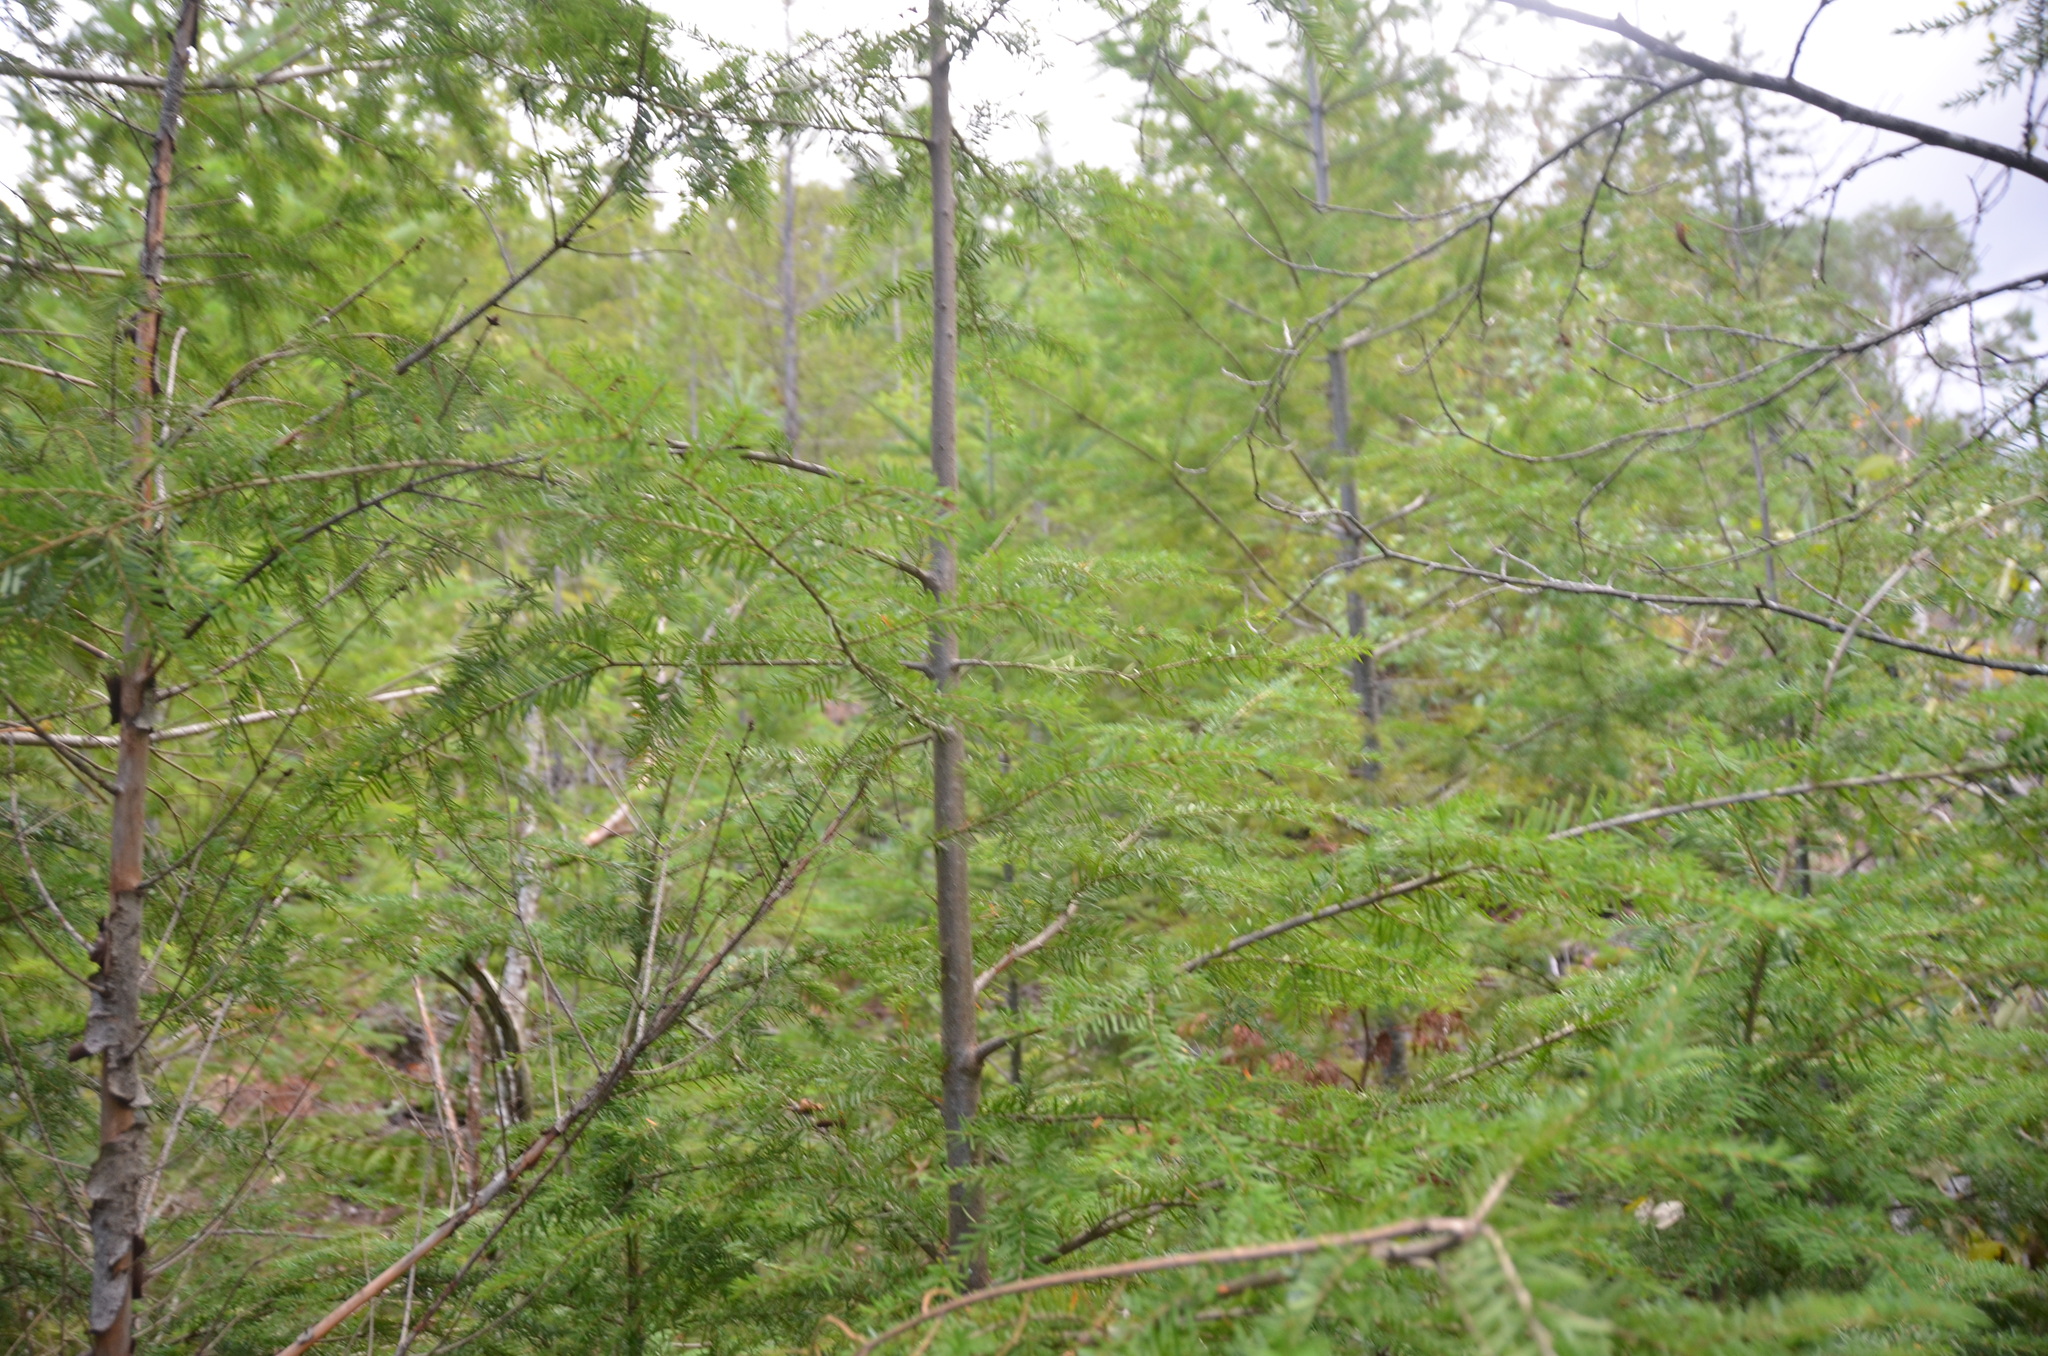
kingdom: Plantae
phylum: Tracheophyta
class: Pinopsida
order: Pinales
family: Pinaceae
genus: Tsuga
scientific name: Tsuga heterophylla
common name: Western hemlock
